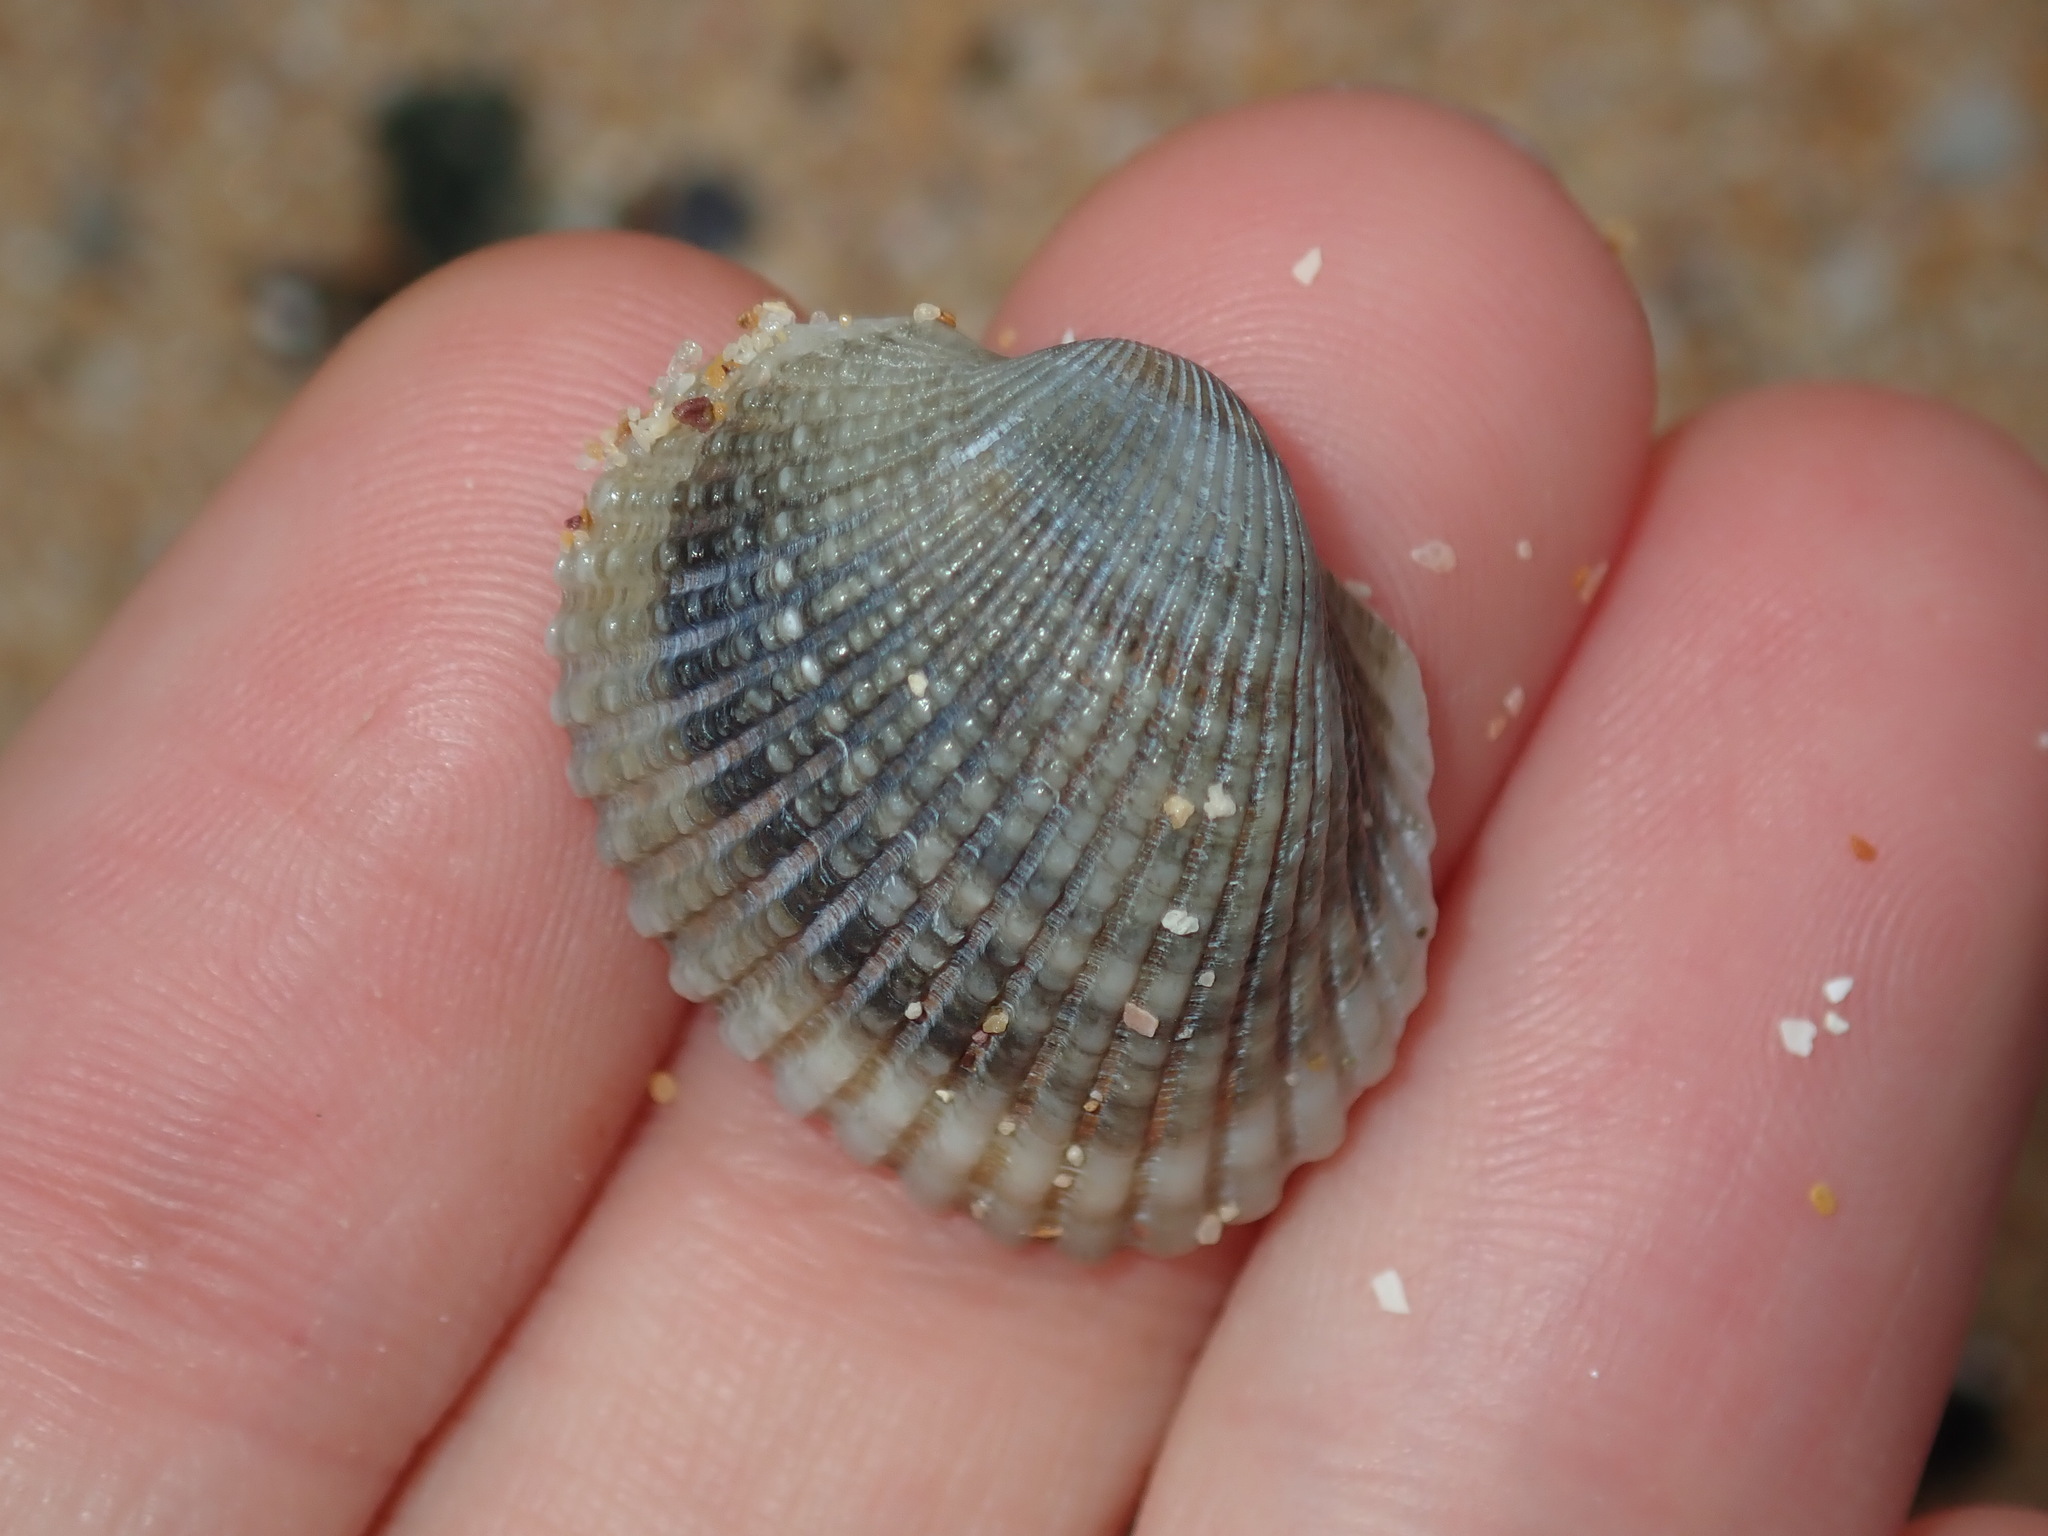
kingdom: Animalia
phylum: Mollusca
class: Bivalvia
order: Arcida
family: Arcidae
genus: Anadara
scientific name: Anadara trapezia
